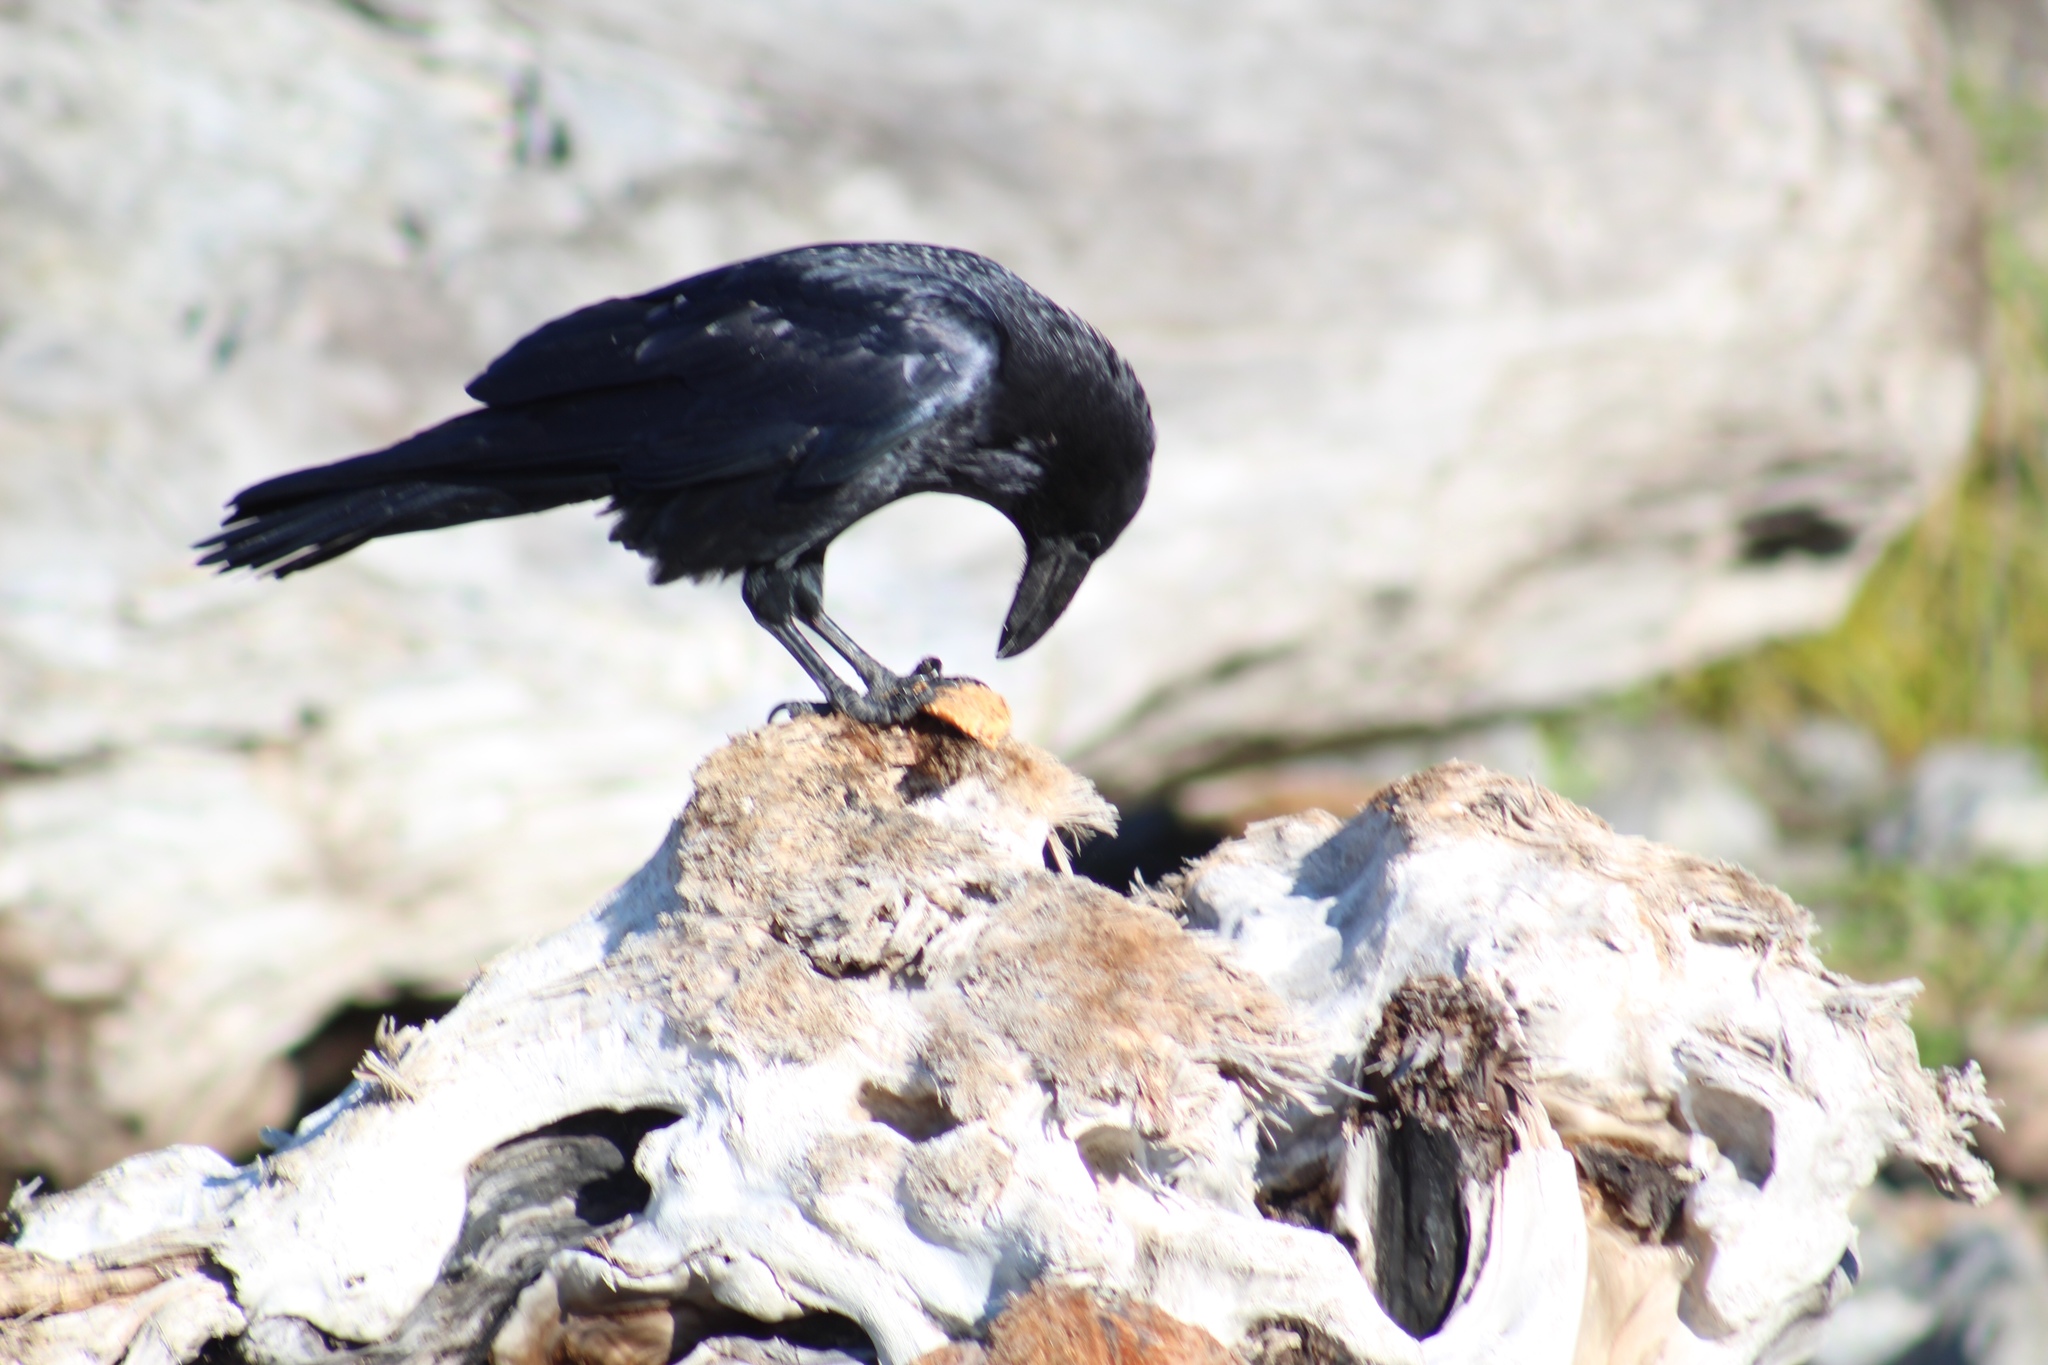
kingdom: Animalia
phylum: Chordata
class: Aves
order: Passeriformes
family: Corvidae
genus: Corvus
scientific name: Corvus corax
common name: Common raven
